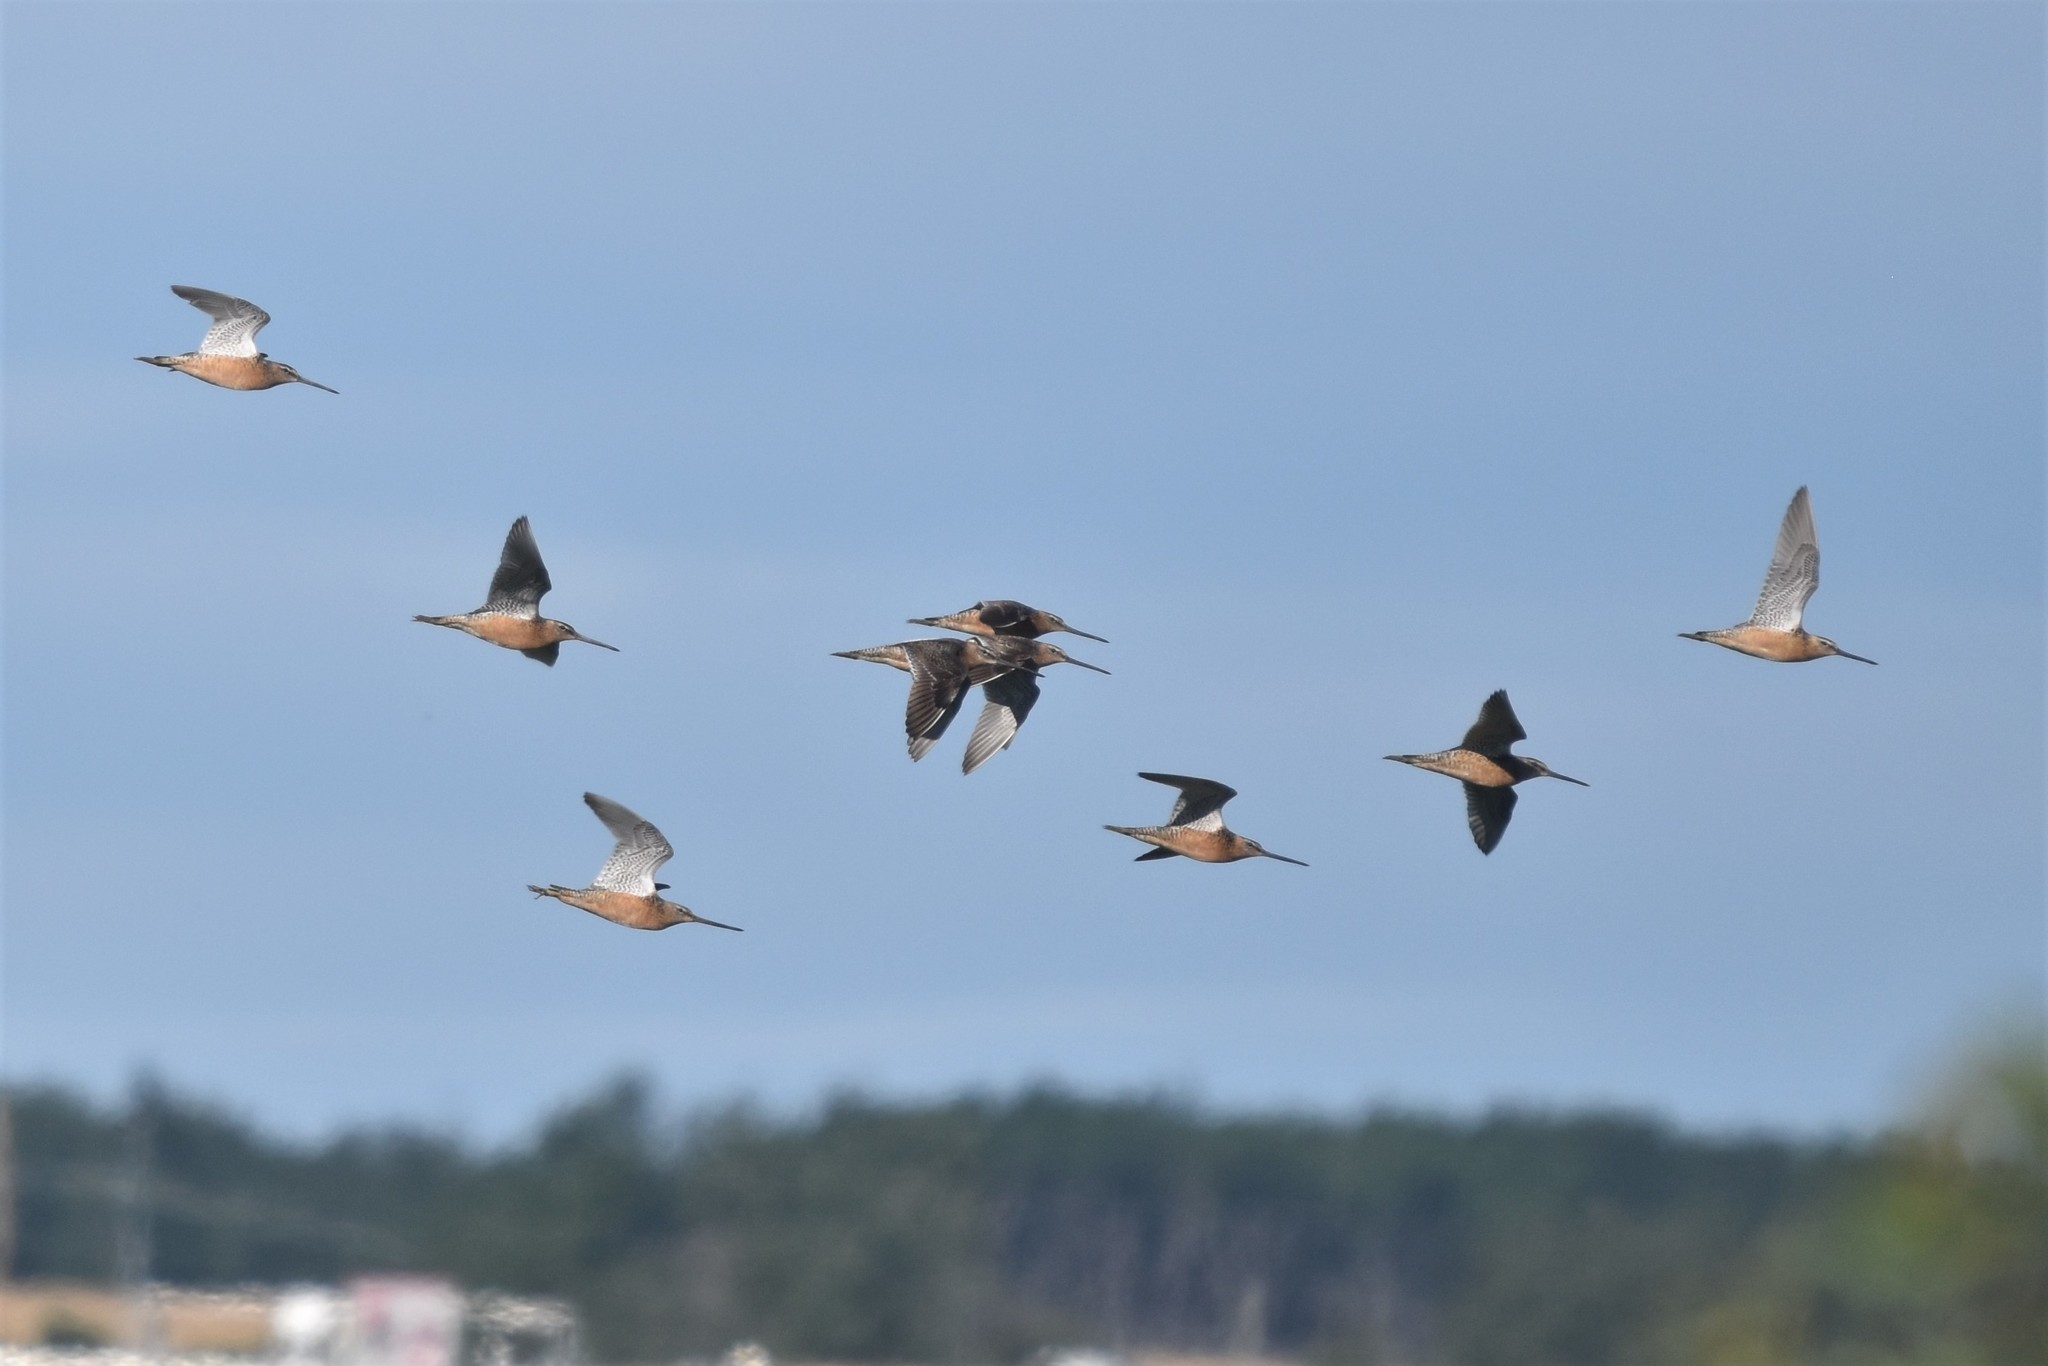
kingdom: Animalia
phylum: Chordata
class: Aves
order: Charadriiformes
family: Scolopacidae
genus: Limnodromus
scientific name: Limnodromus scolopaceus
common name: Long-billed dowitcher
